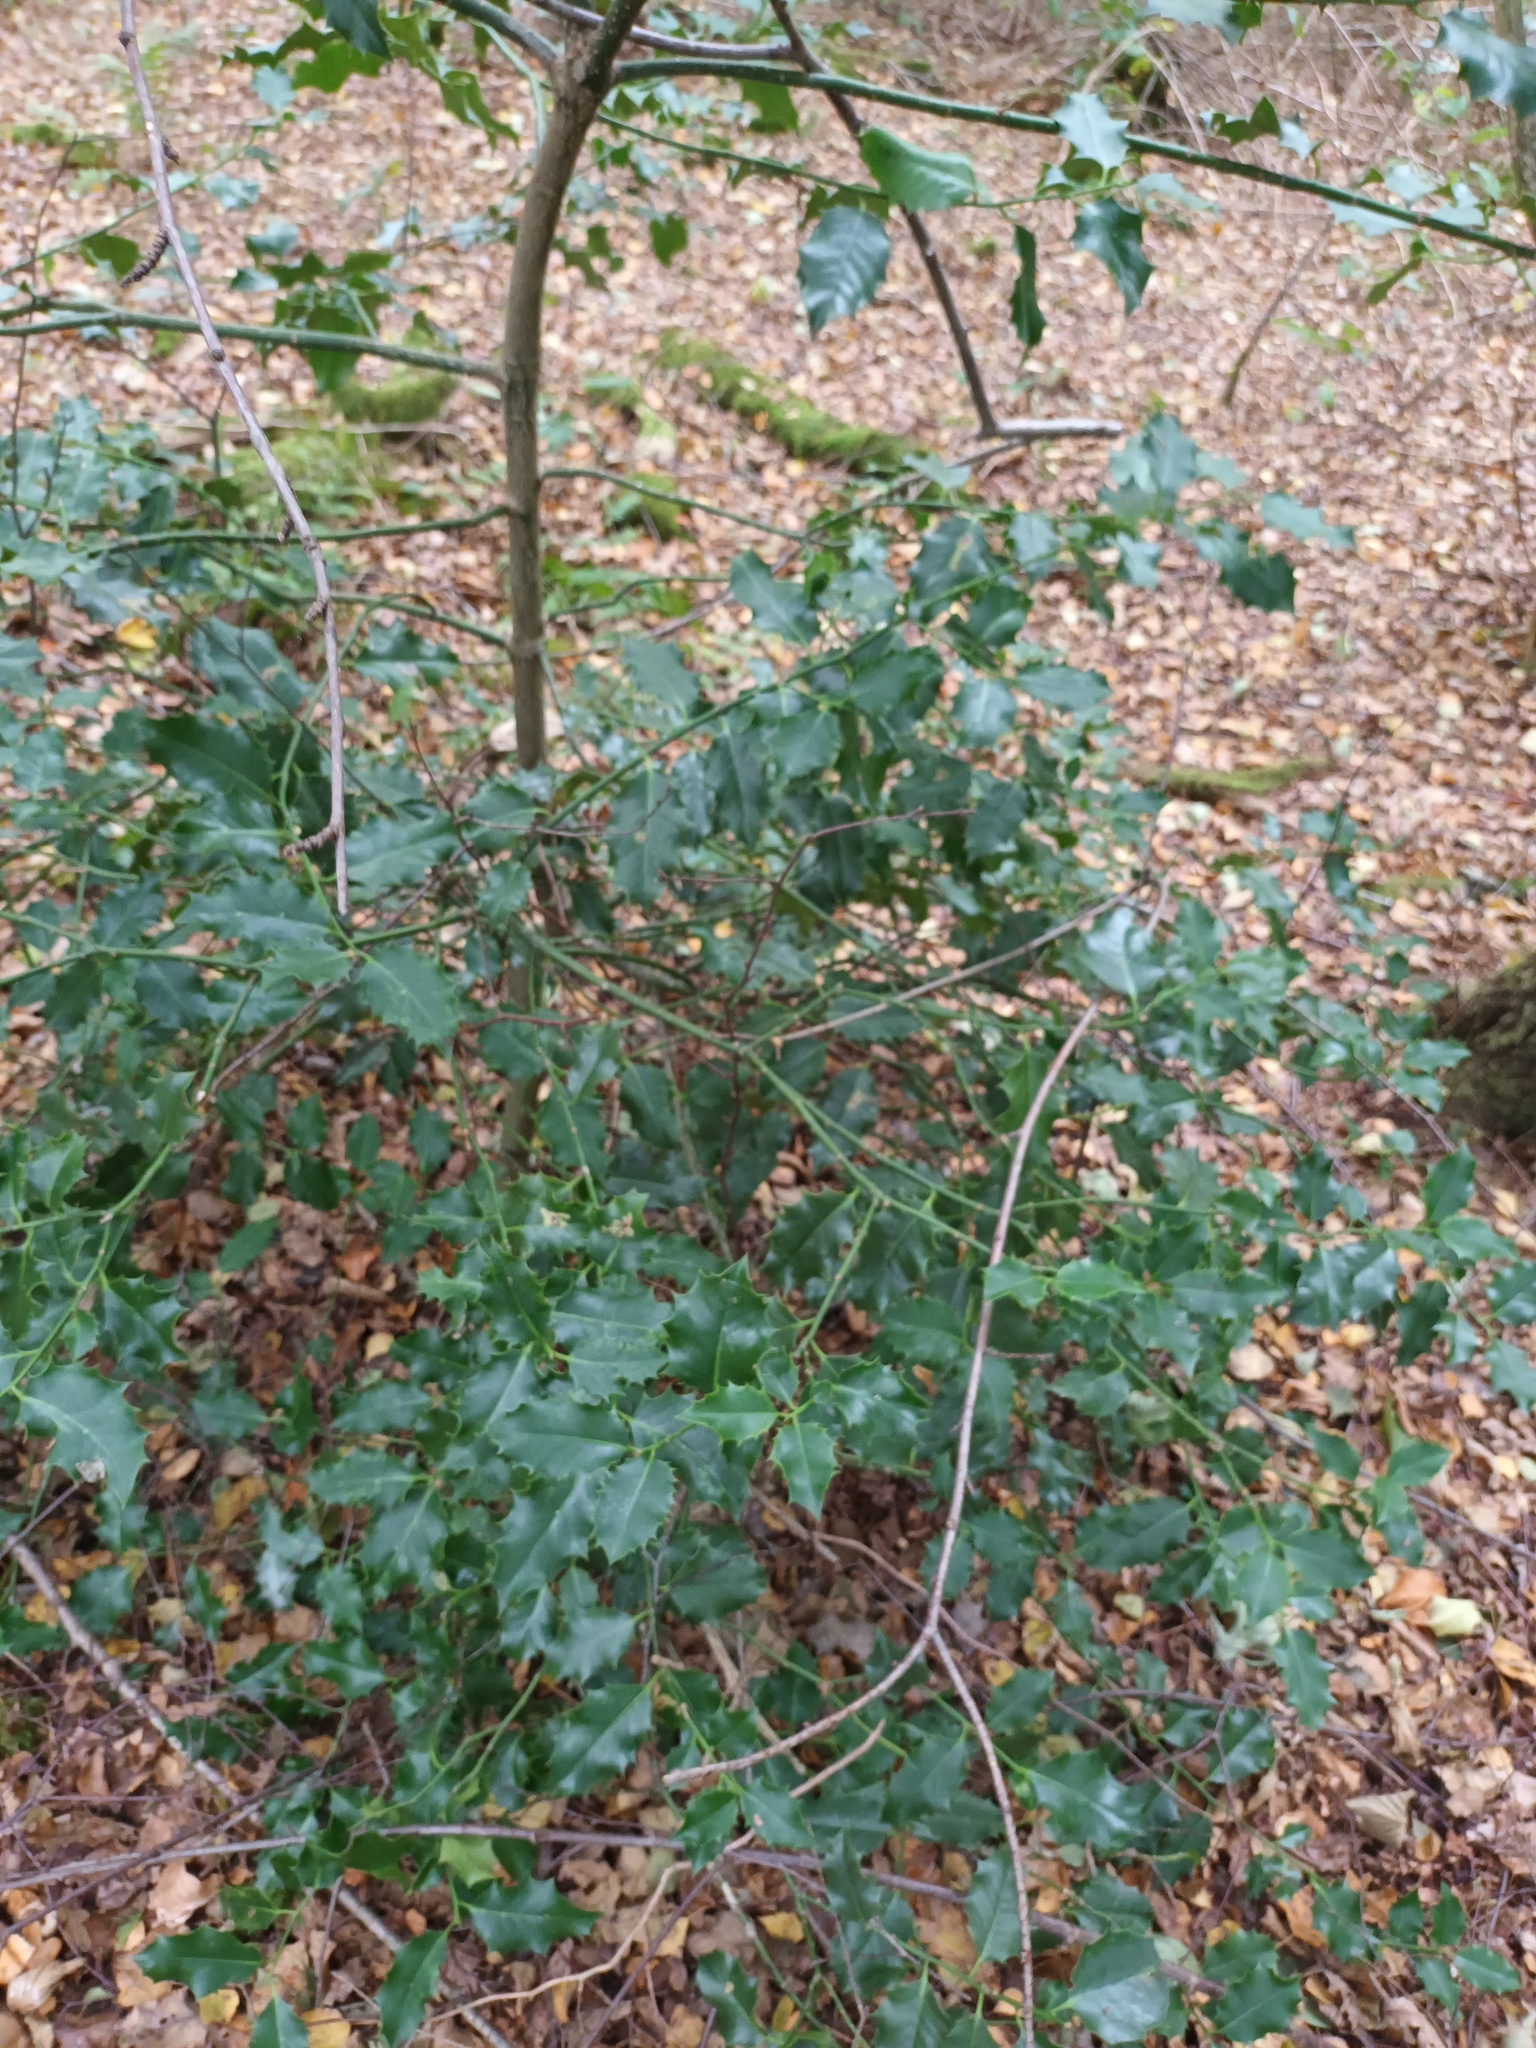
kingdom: Plantae
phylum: Tracheophyta
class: Magnoliopsida
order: Aquifoliales
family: Aquifoliaceae
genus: Ilex
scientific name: Ilex aquifolium
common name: English holly
